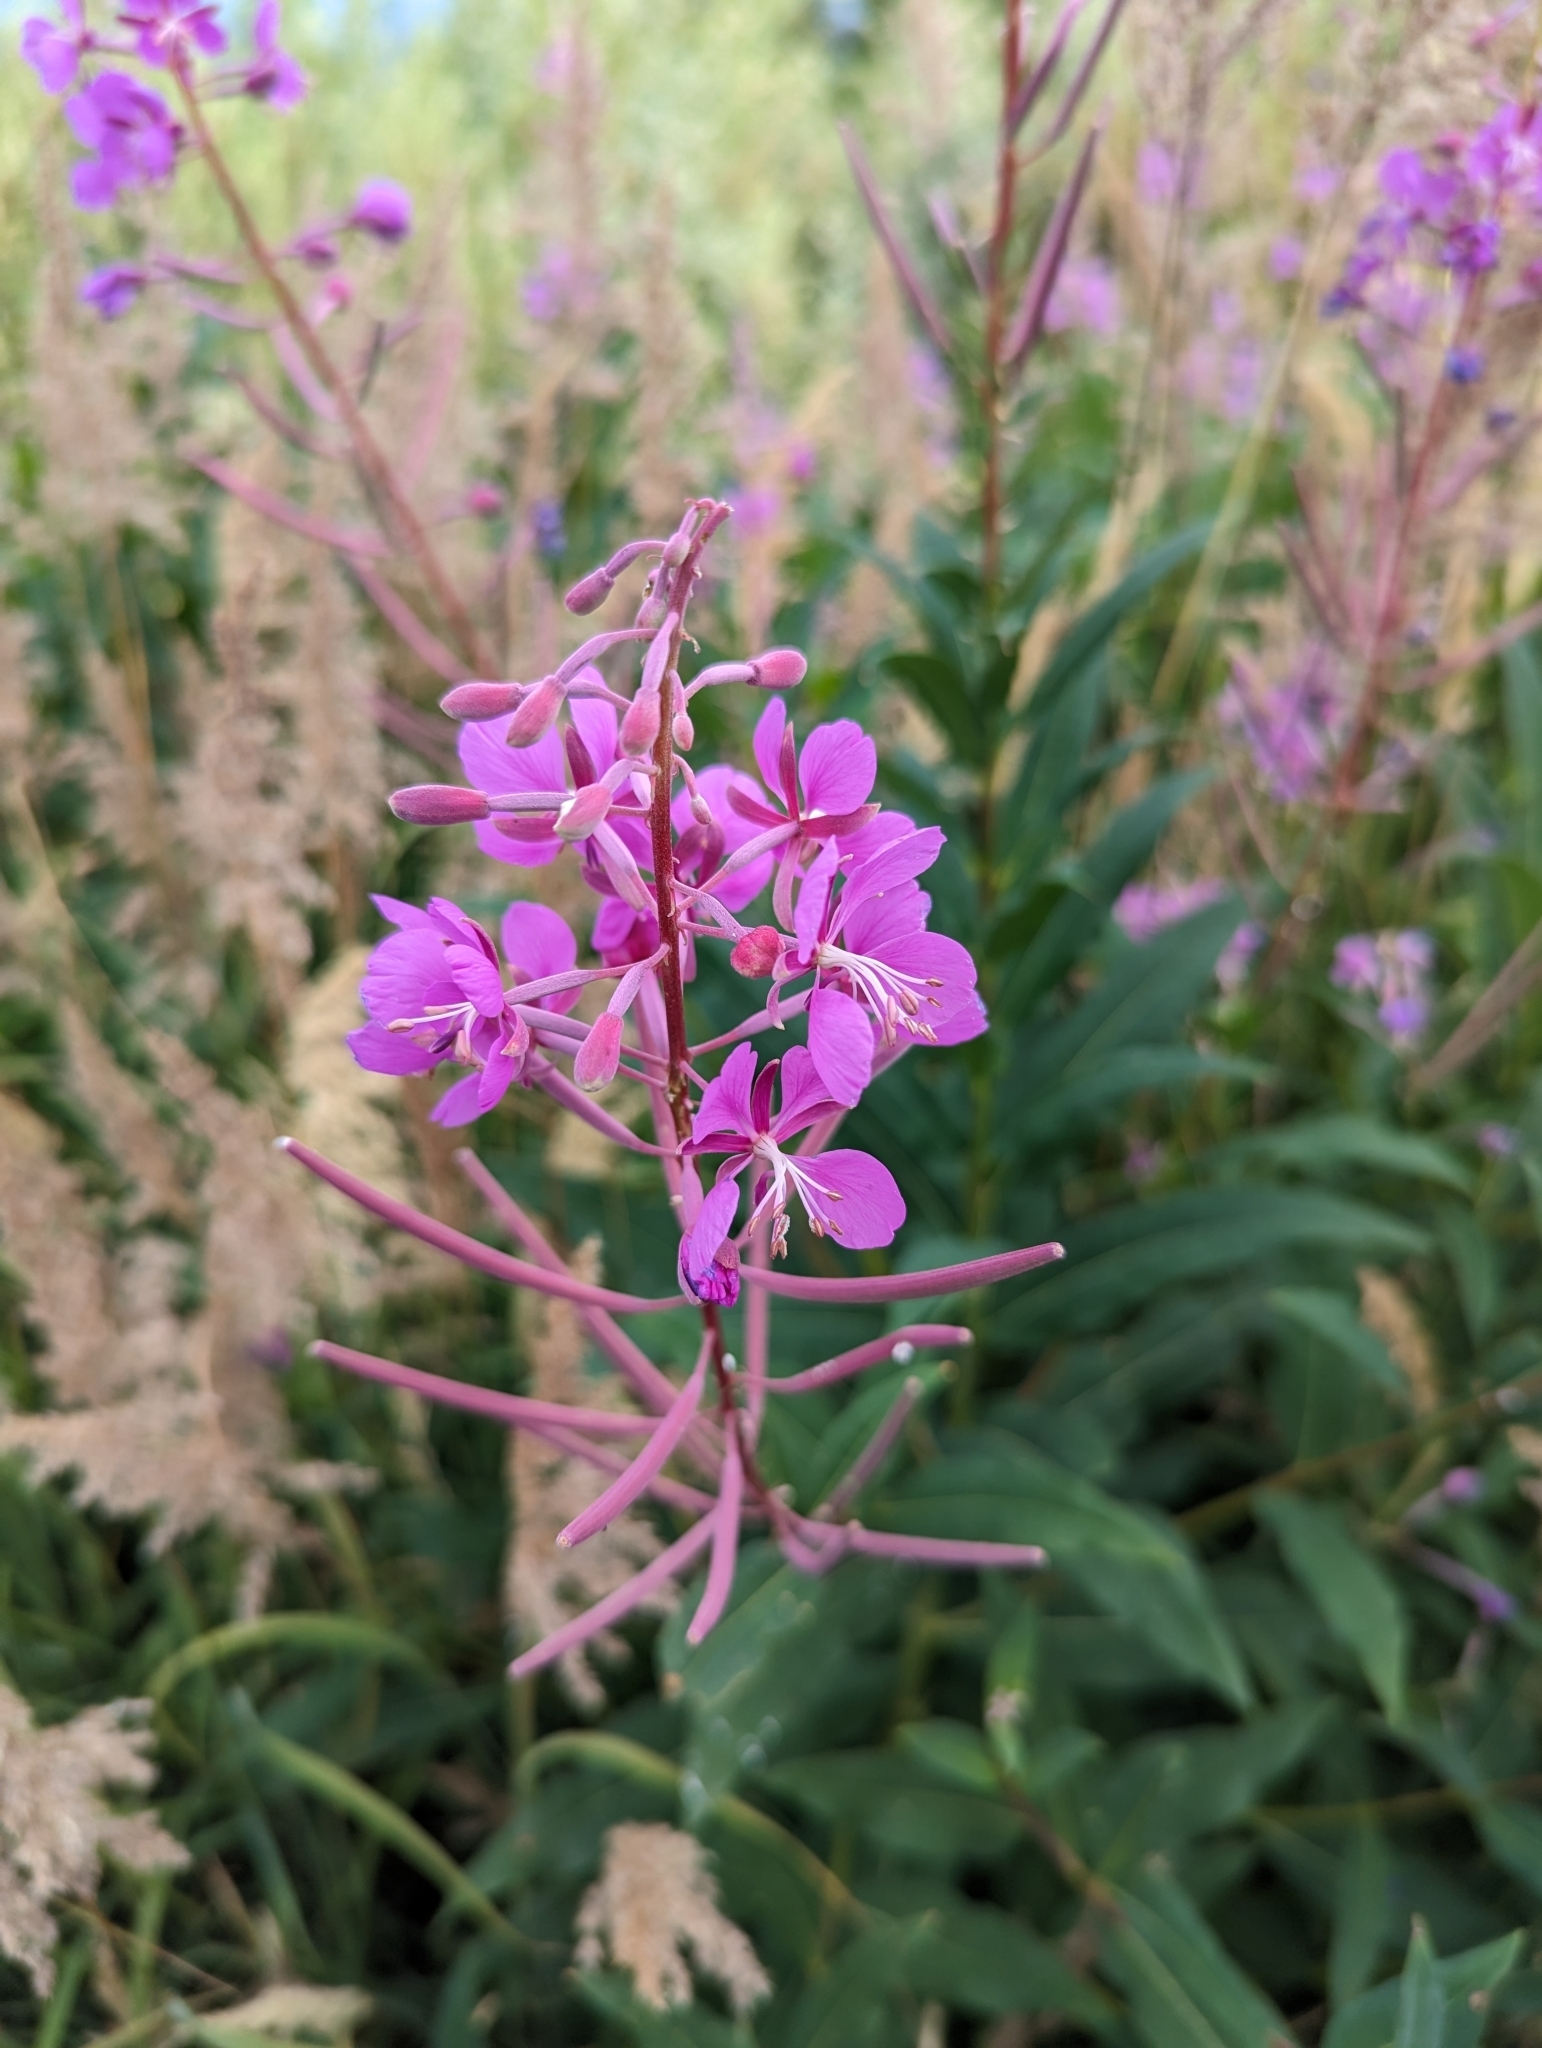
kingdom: Plantae
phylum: Tracheophyta
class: Magnoliopsida
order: Myrtales
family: Onagraceae
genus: Chamaenerion
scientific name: Chamaenerion angustifolium
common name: Fireweed
